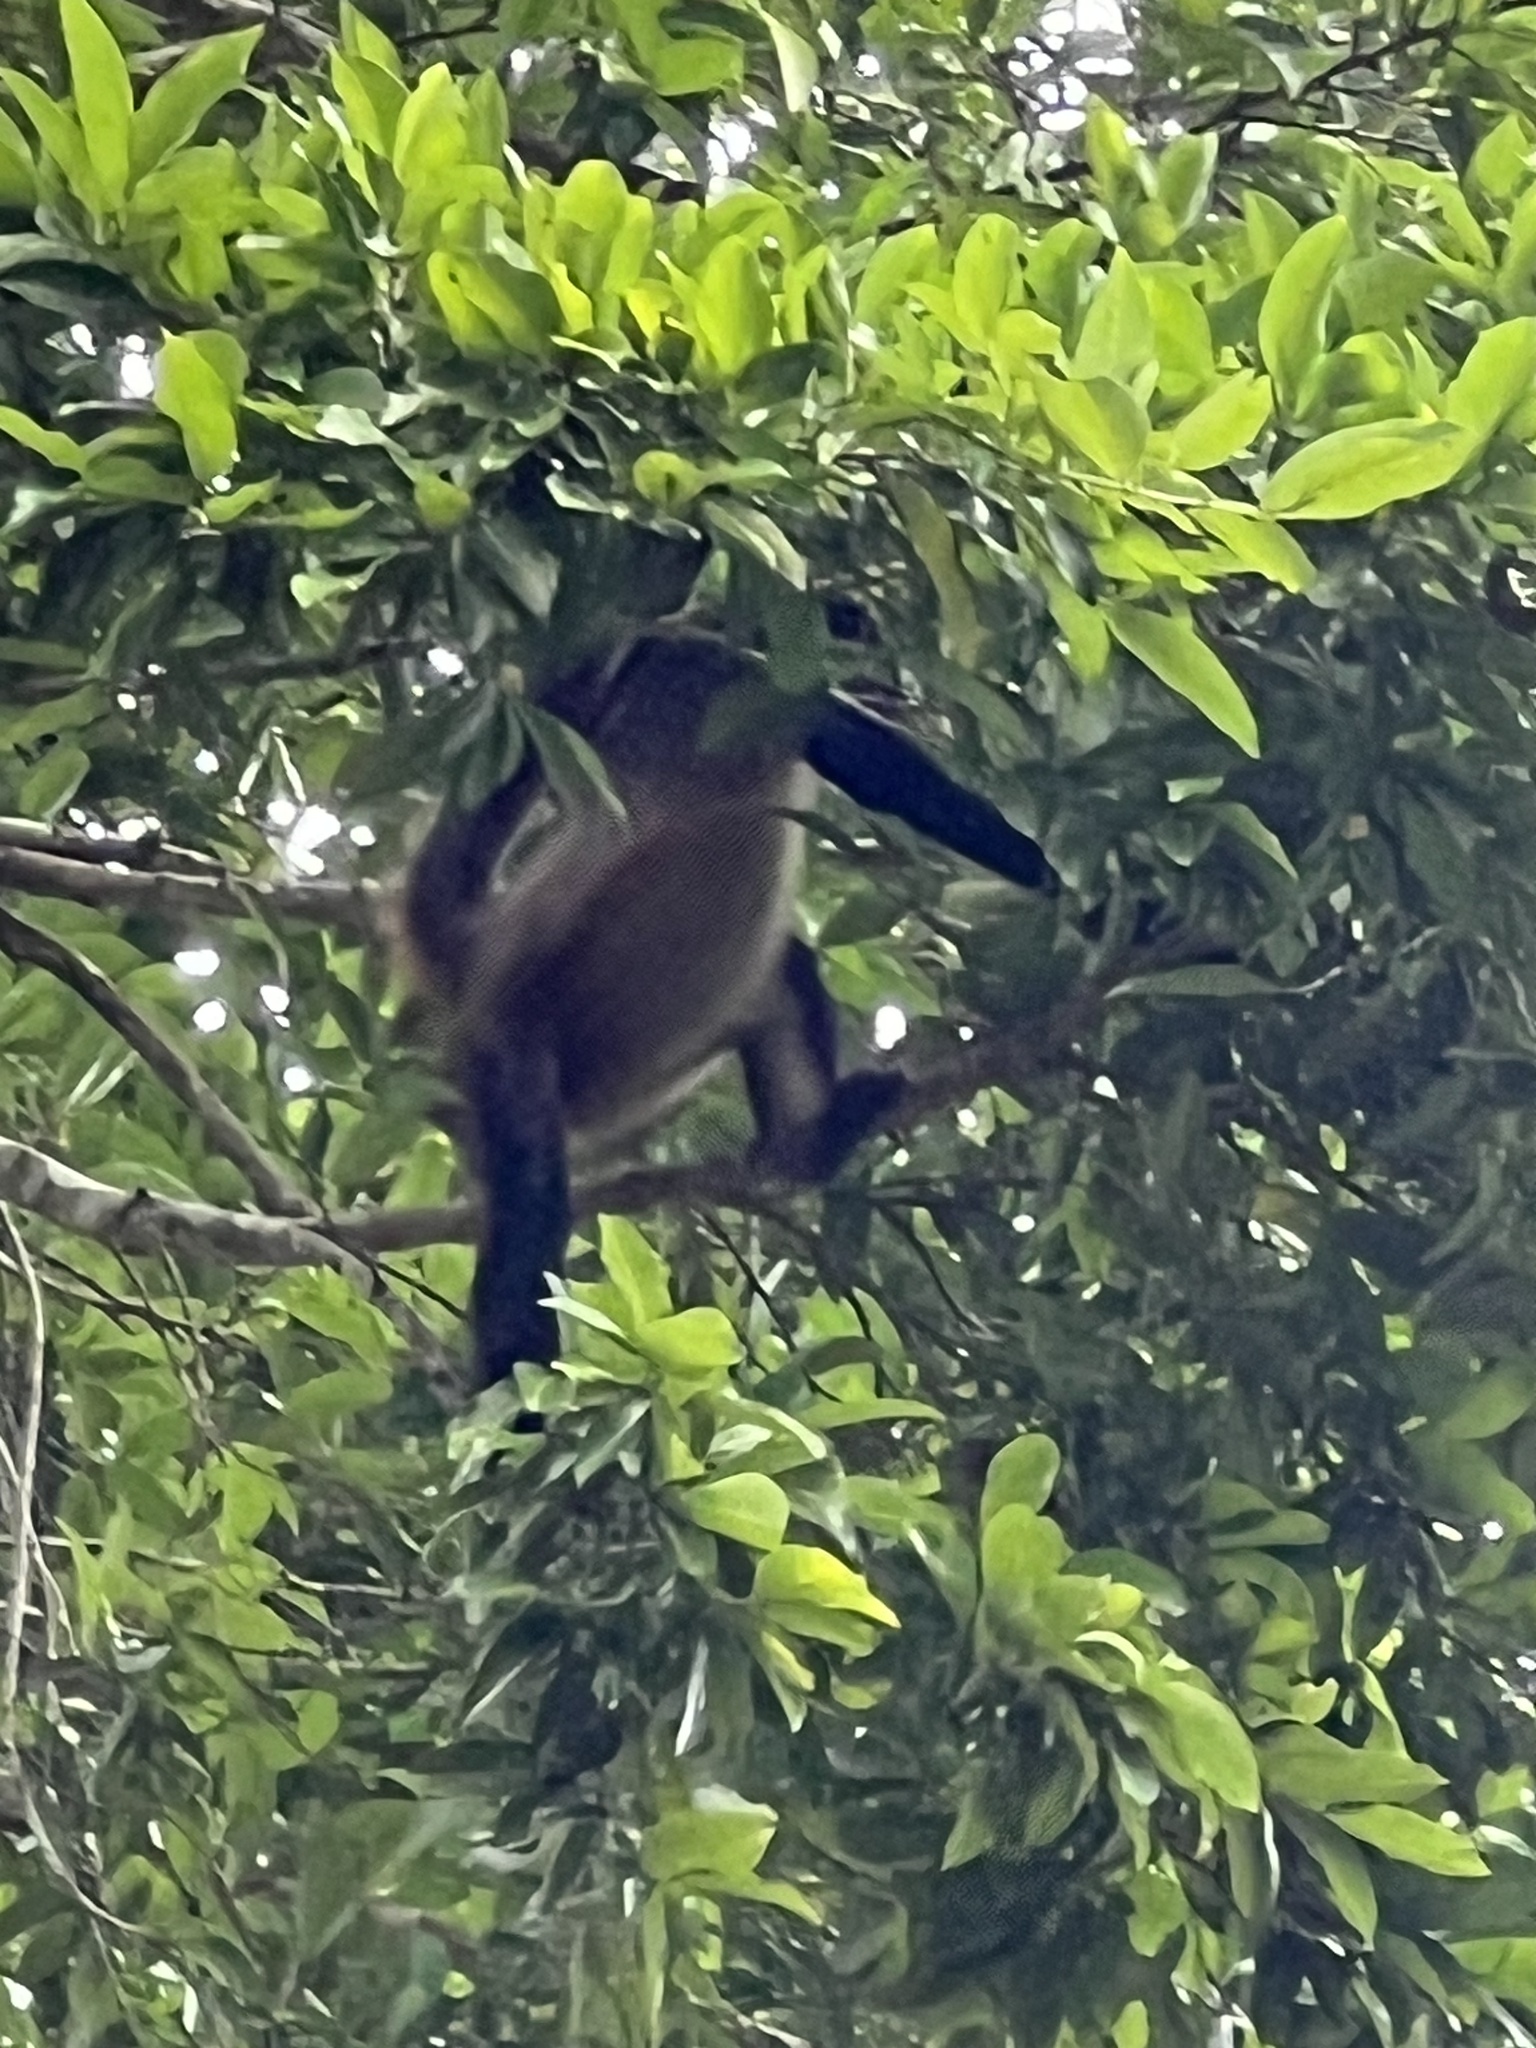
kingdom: Animalia
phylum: Chordata
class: Mammalia
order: Primates
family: Atelidae
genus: Ateles
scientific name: Ateles geoffroyi
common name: Black-handed spider monkey
